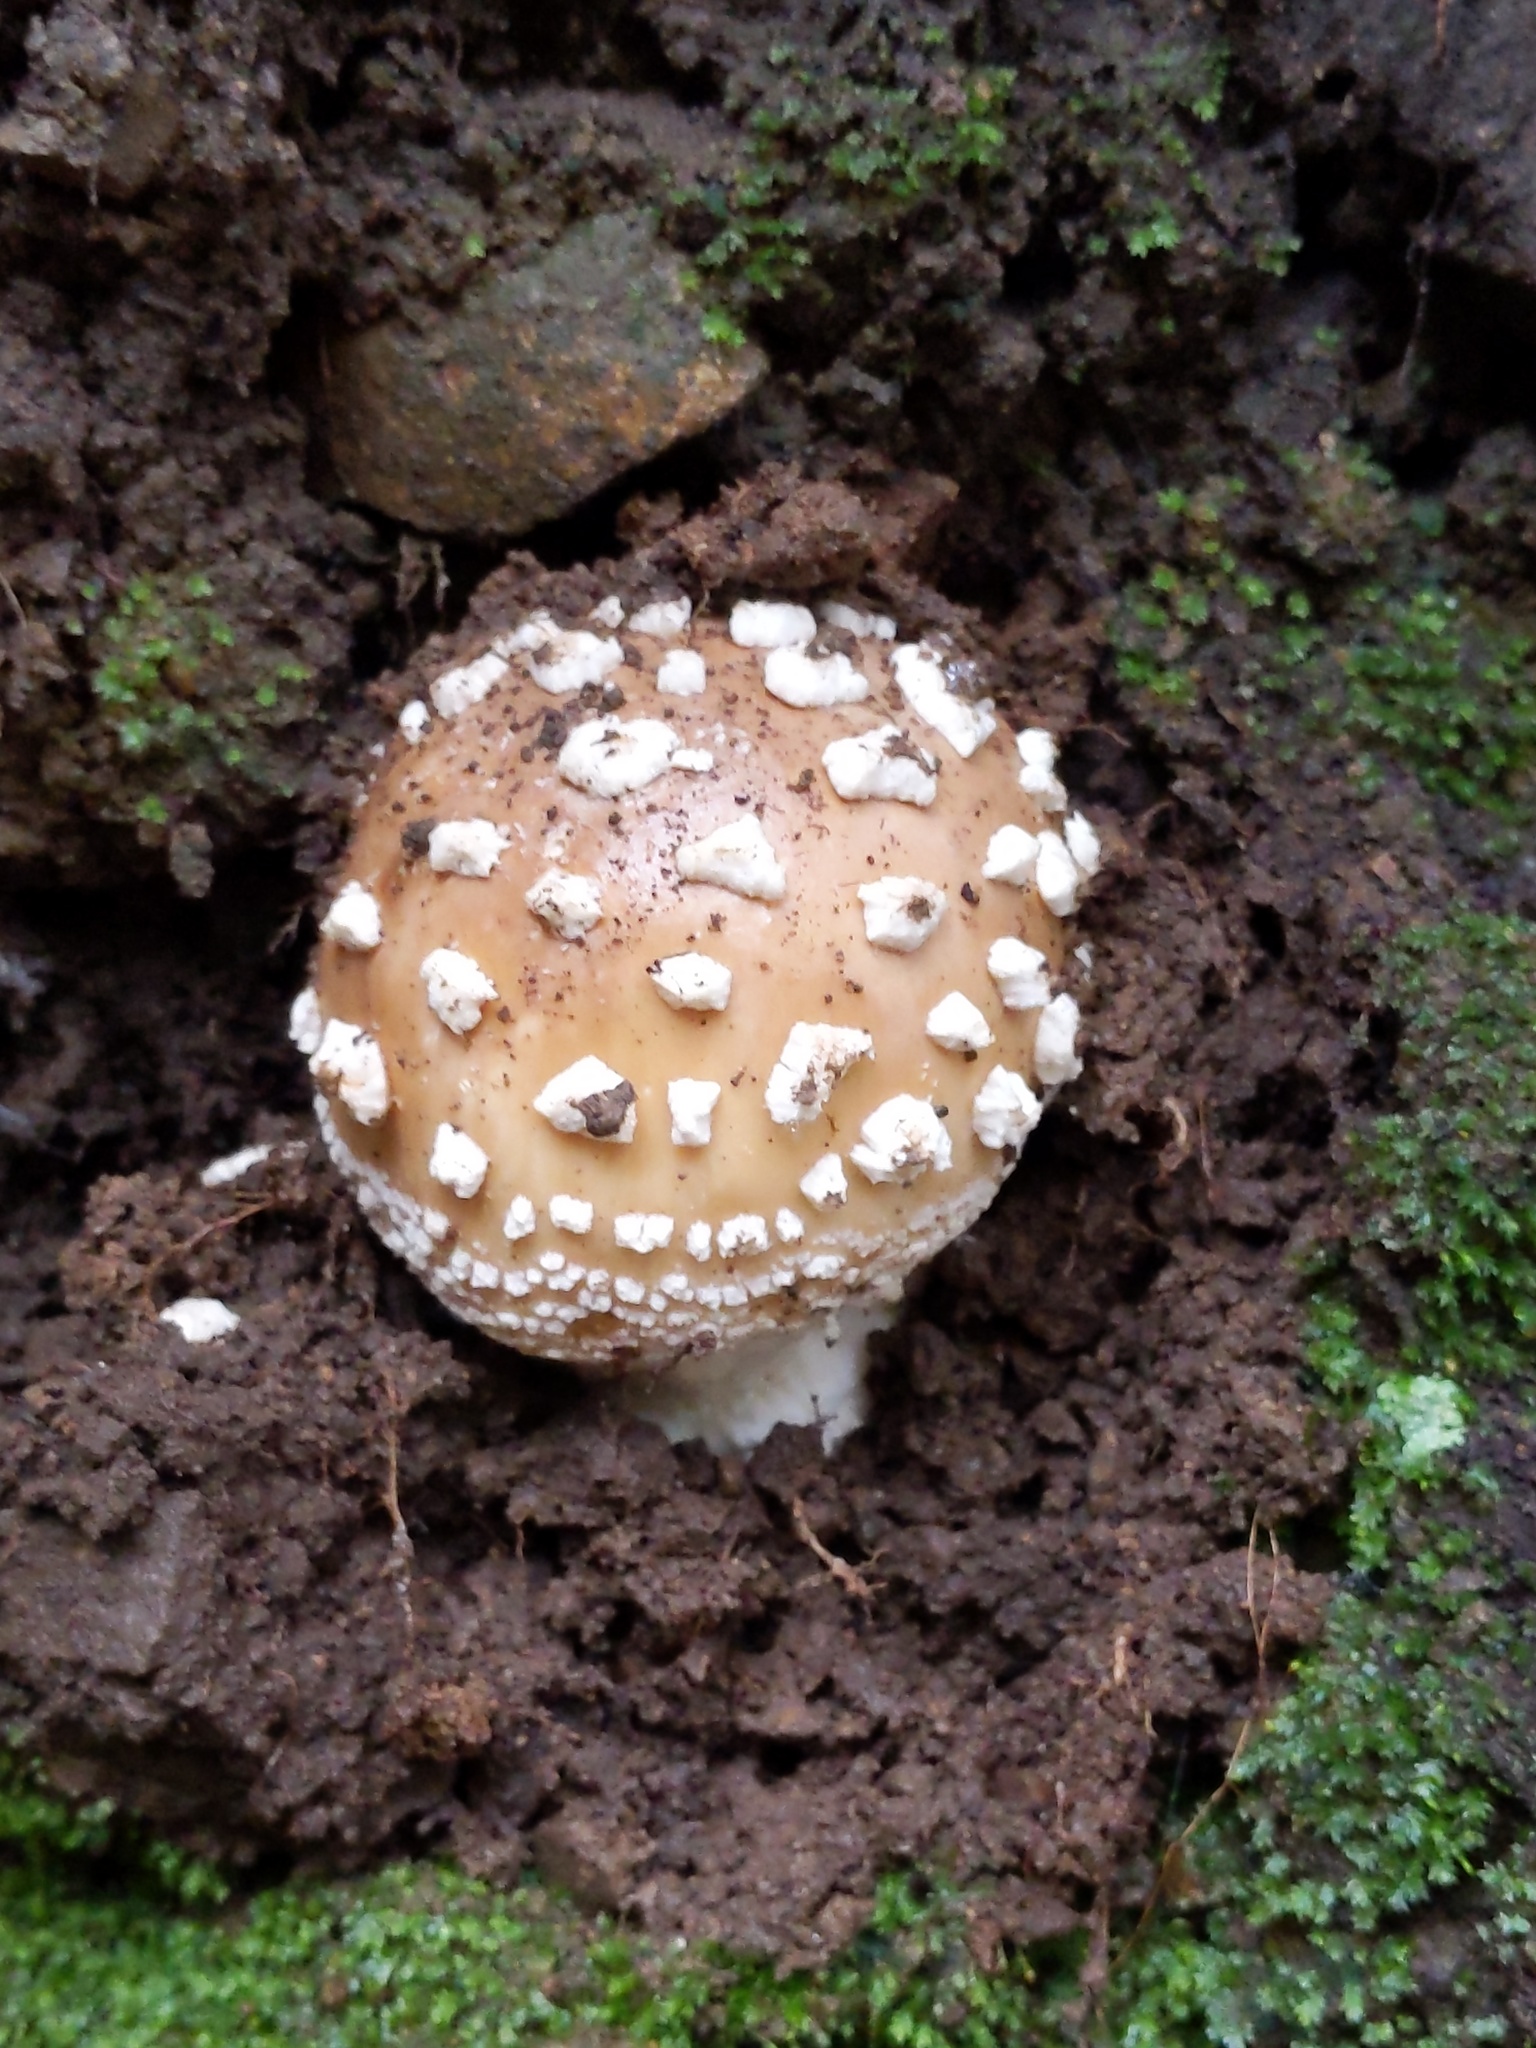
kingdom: Fungi
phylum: Basidiomycota
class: Agaricomycetes
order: Agaricales
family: Amanitaceae
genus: Amanita
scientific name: Amanita pantherina
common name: Panthercap
